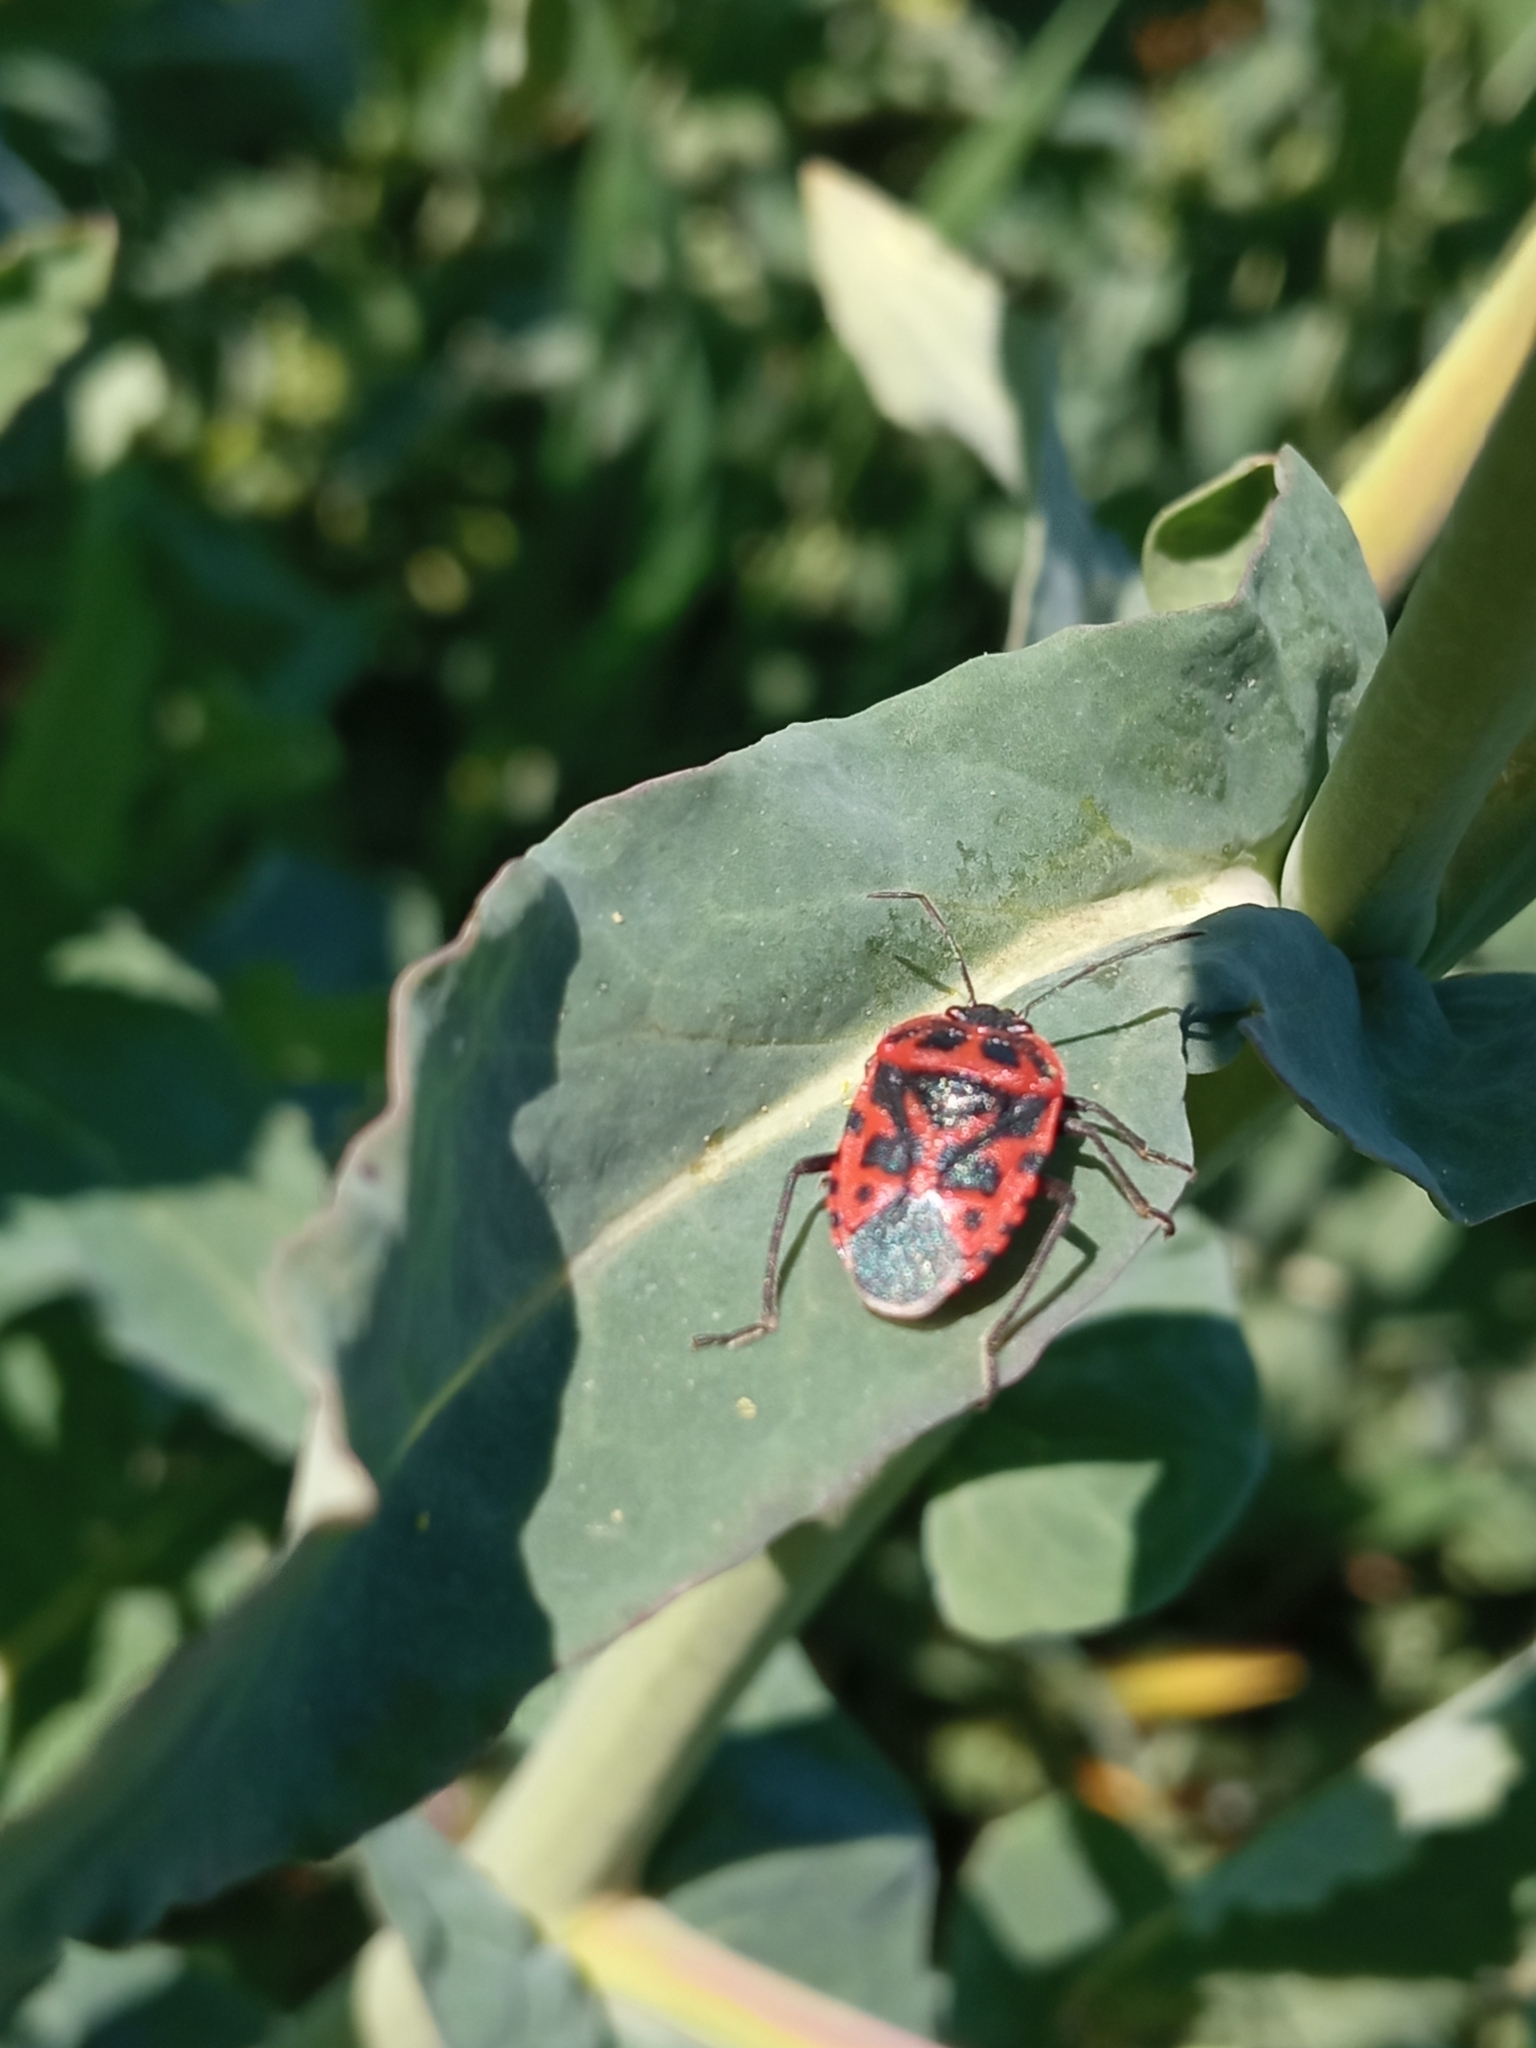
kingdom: Animalia
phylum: Arthropoda
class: Insecta
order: Hemiptera
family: Pentatomidae
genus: Eurydema
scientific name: Eurydema ventralis
